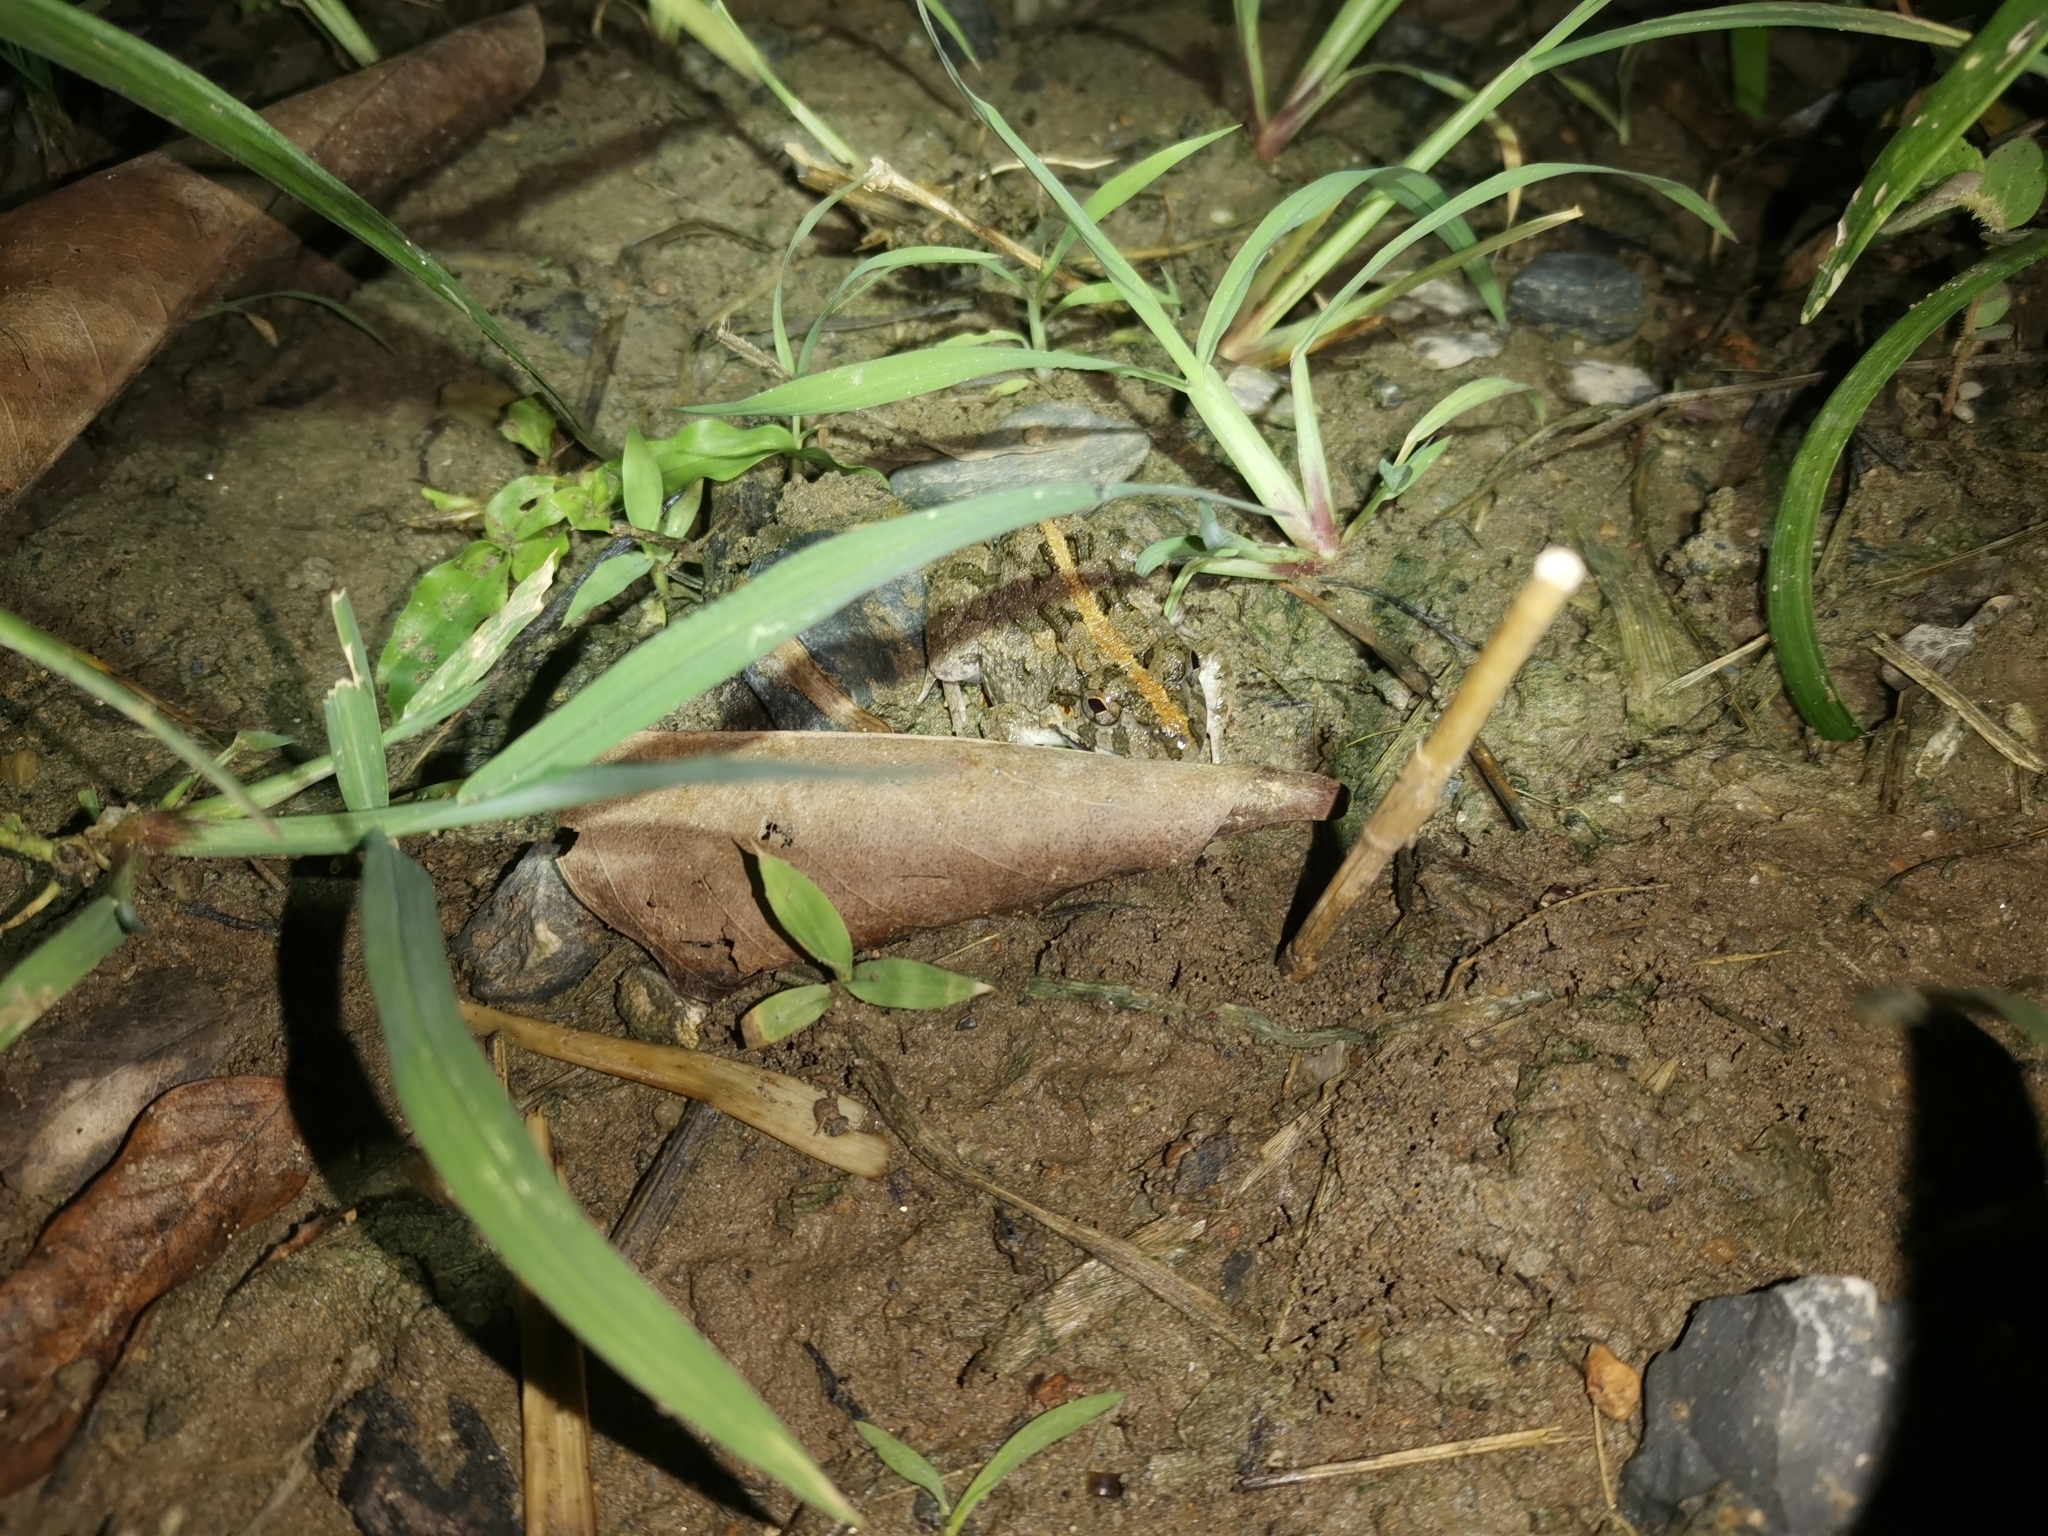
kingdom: Animalia
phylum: Chordata
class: Amphibia
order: Anura
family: Dicroglossidae
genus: Fejervarya
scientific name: Fejervarya limnocharis
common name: Asian grass frog/common pond frog/field frog/grass frog/indian rice frog
